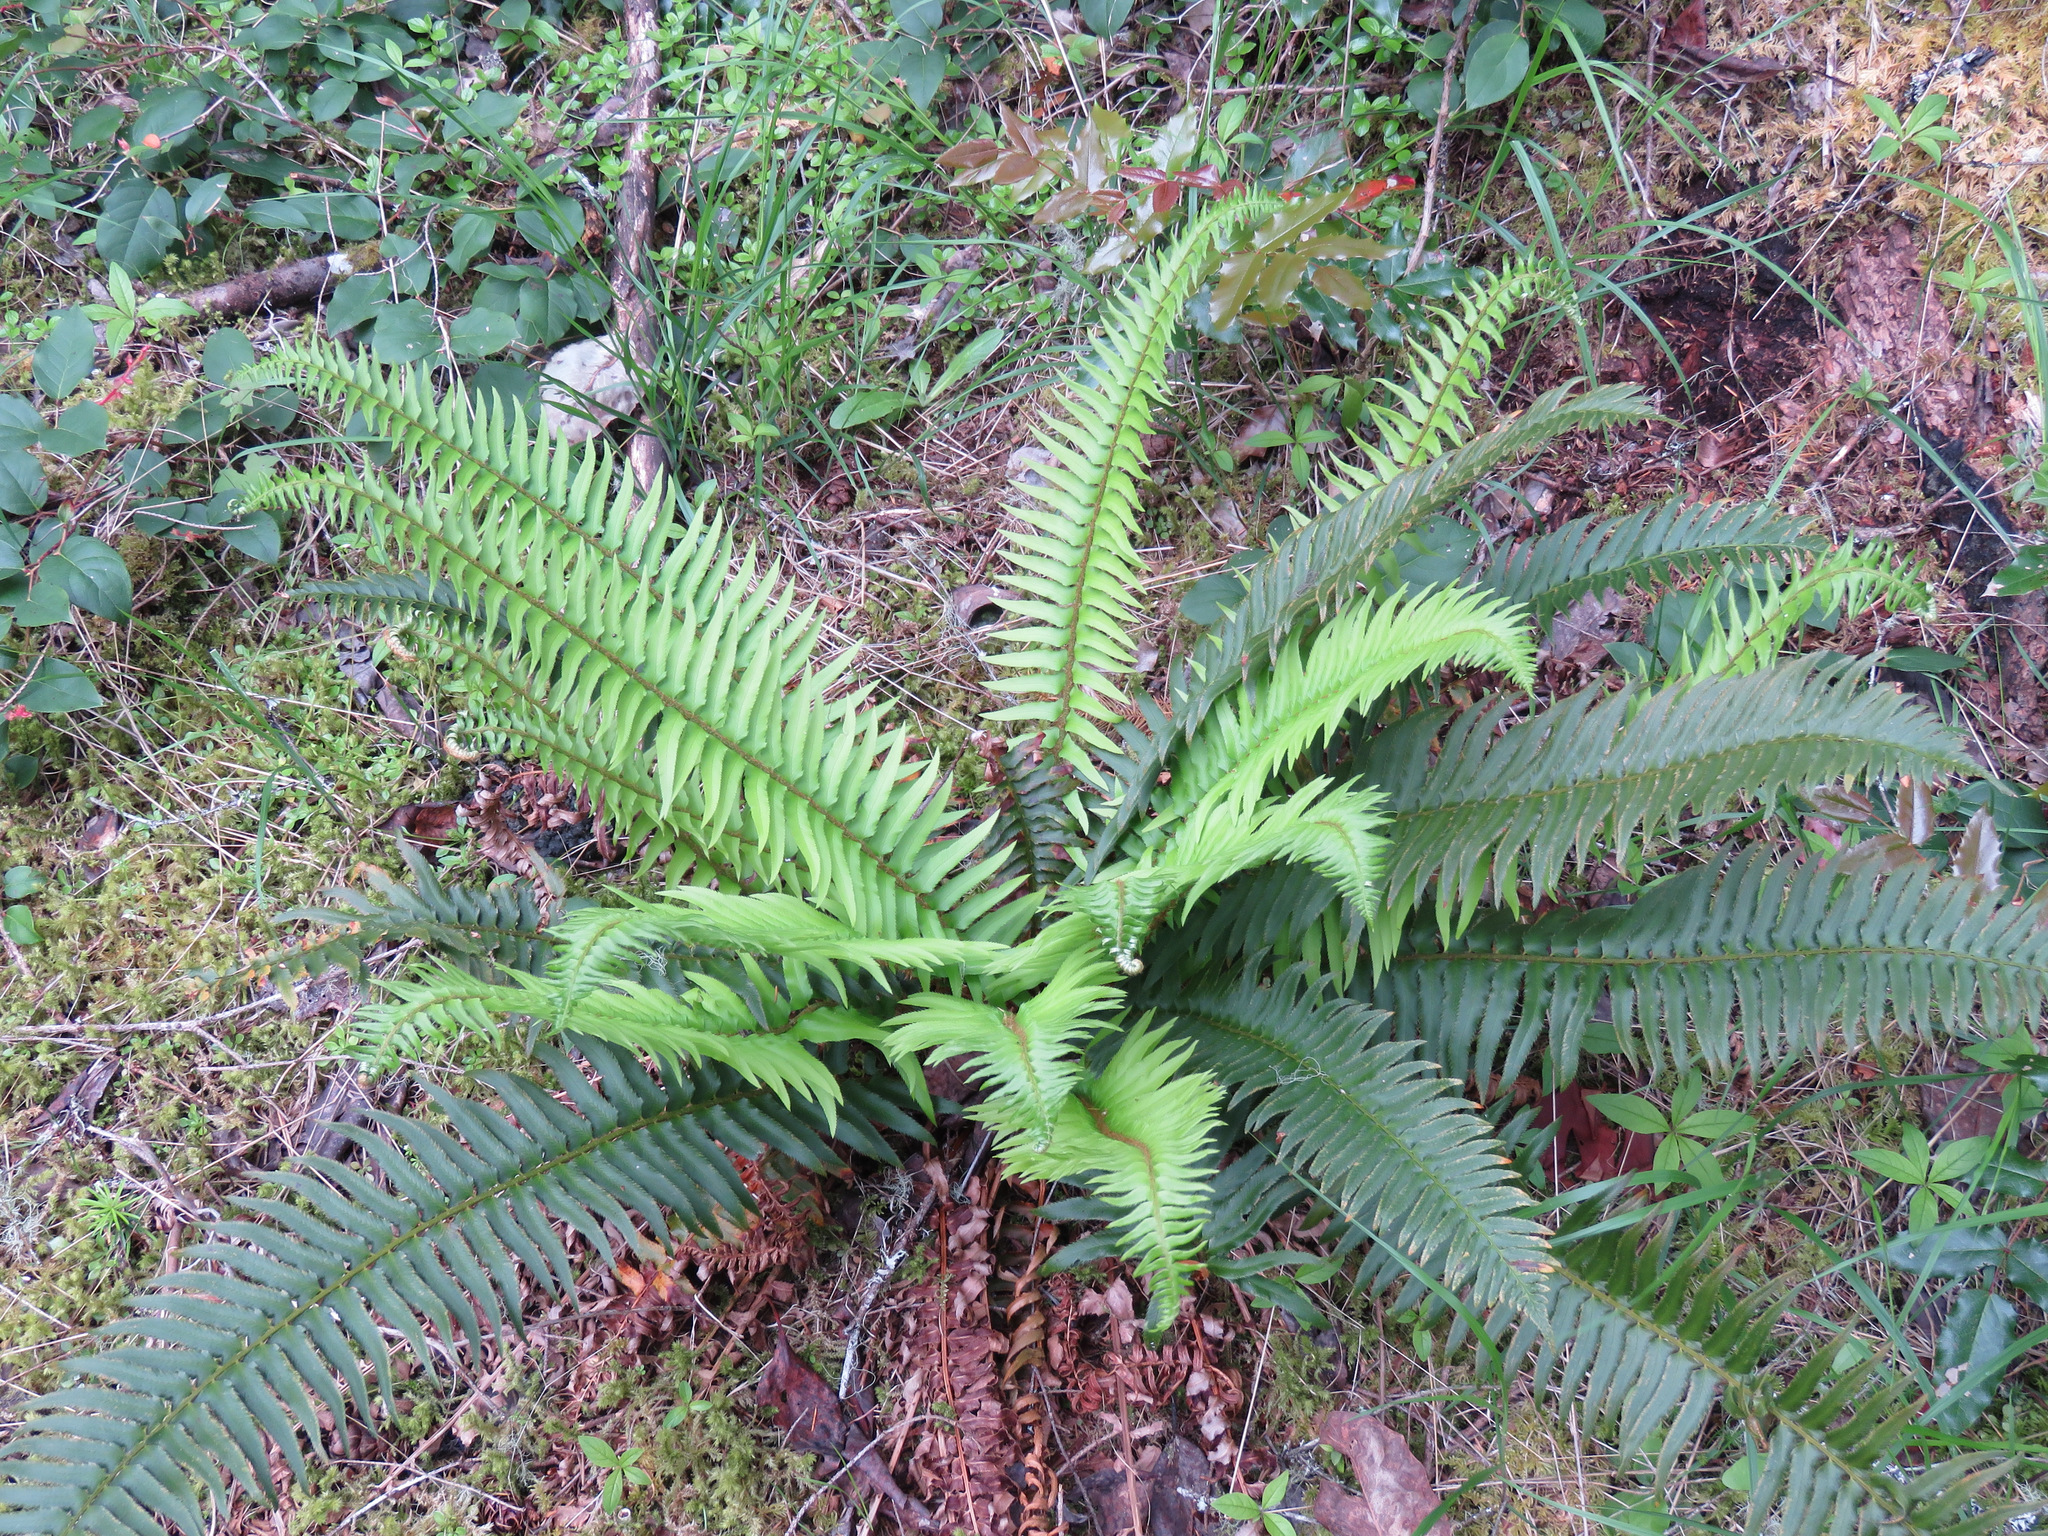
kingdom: Plantae
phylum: Tracheophyta
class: Polypodiopsida
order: Polypodiales
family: Dryopteridaceae
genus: Polystichum
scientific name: Polystichum munitum
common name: Western sword-fern
